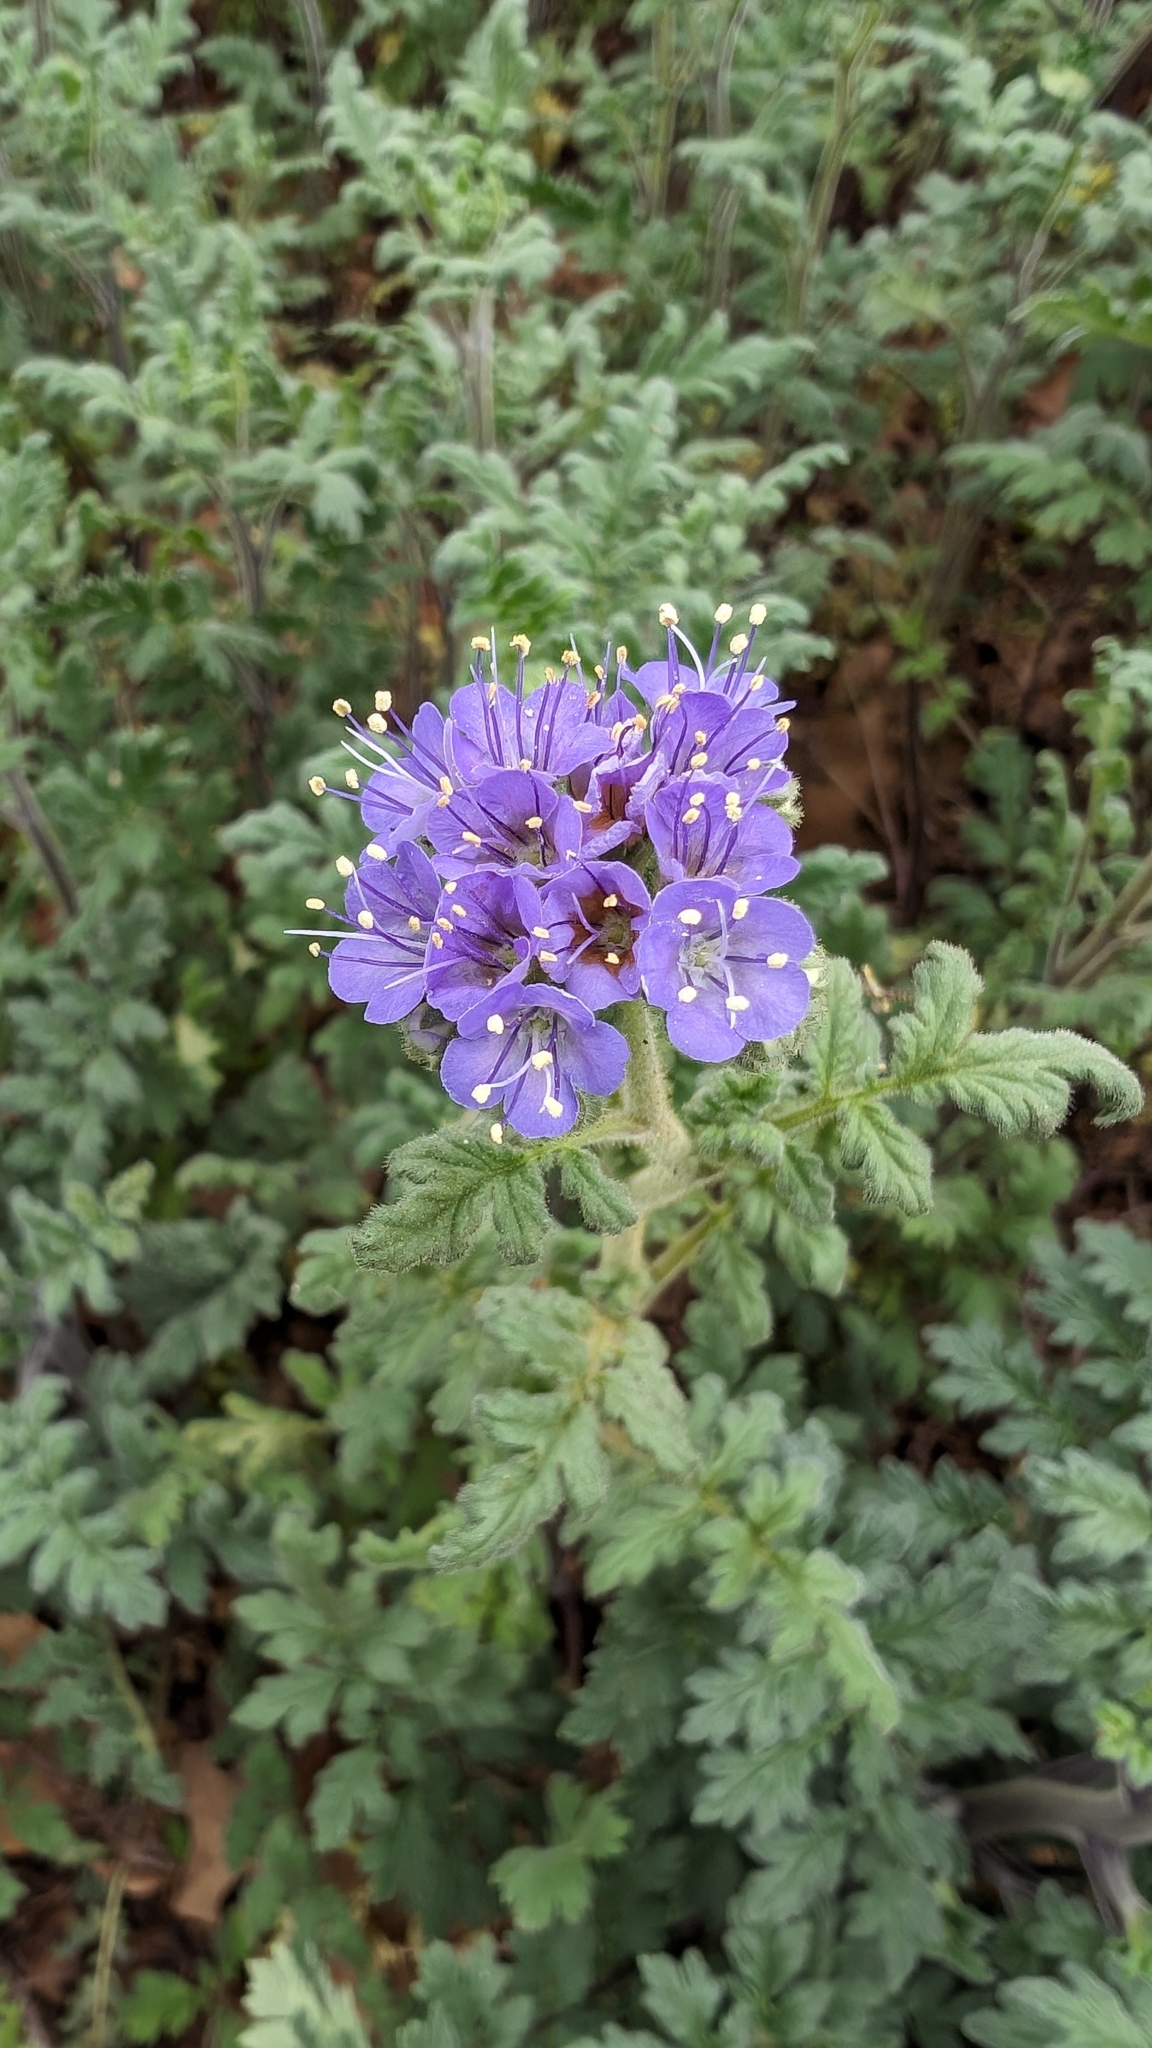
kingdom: Plantae
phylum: Tracheophyta
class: Magnoliopsida
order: Boraginales
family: Hydrophyllaceae
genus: Phacelia
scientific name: Phacelia congesta
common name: Blue curls
